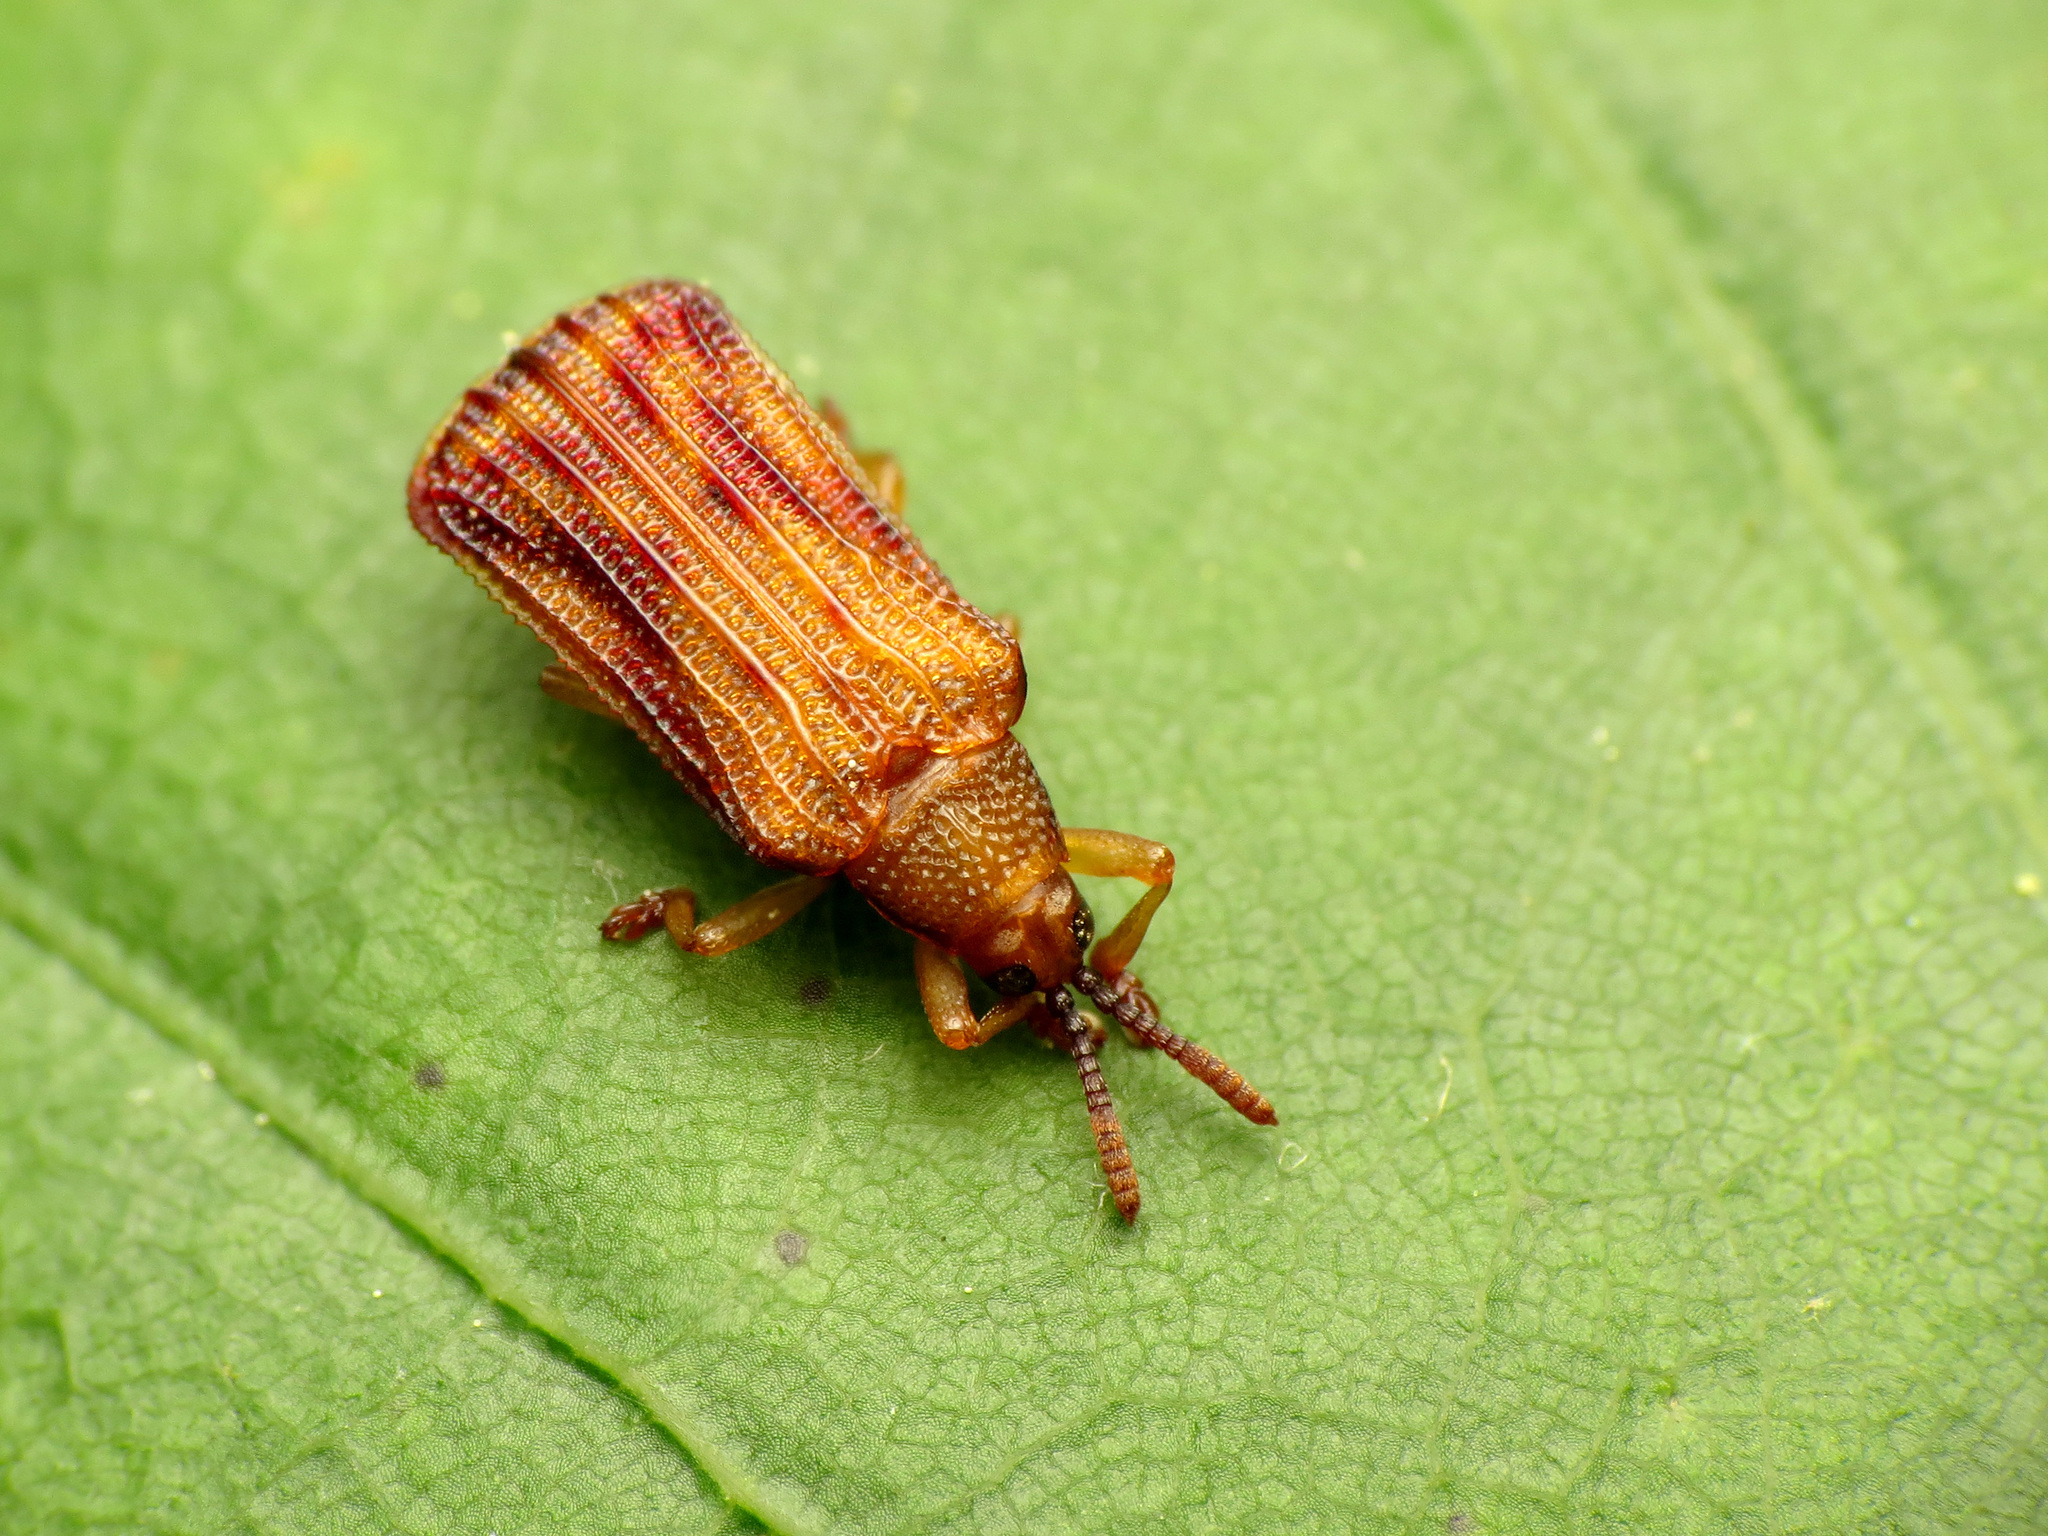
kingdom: Animalia
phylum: Arthropoda
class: Insecta
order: Coleoptera
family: Chrysomelidae
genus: Baliosus
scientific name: Baliosus nervosus
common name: Basswood leaf miner
